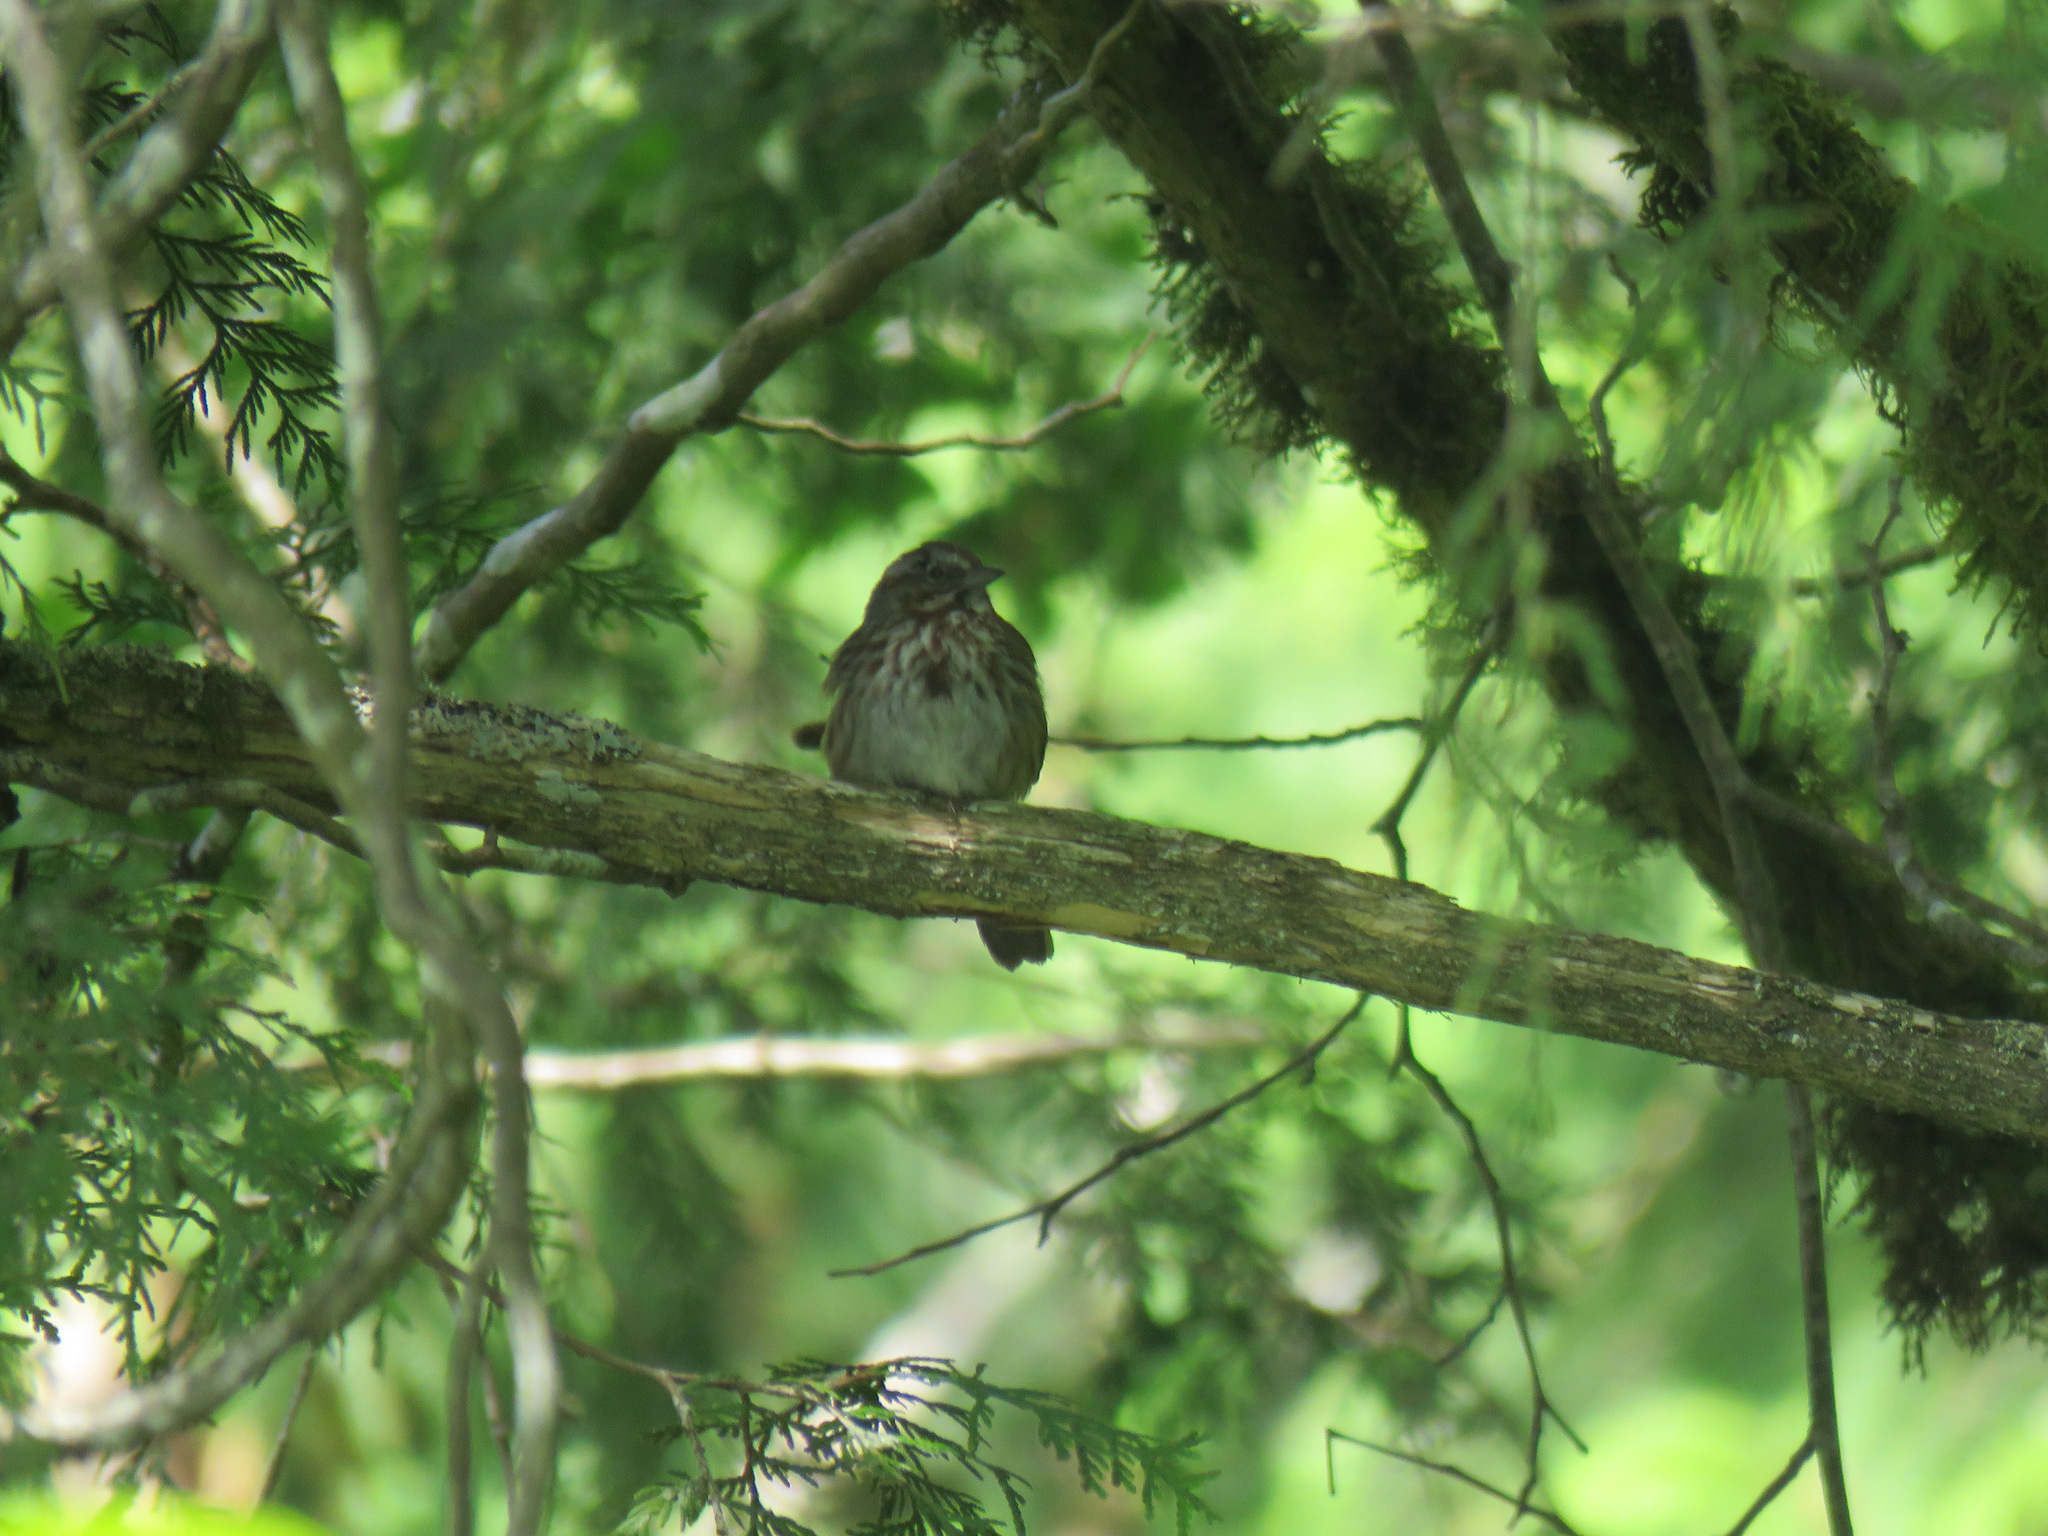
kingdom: Animalia
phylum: Chordata
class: Aves
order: Passeriformes
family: Passerellidae
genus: Melospiza
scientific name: Melospiza melodia
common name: Song sparrow
